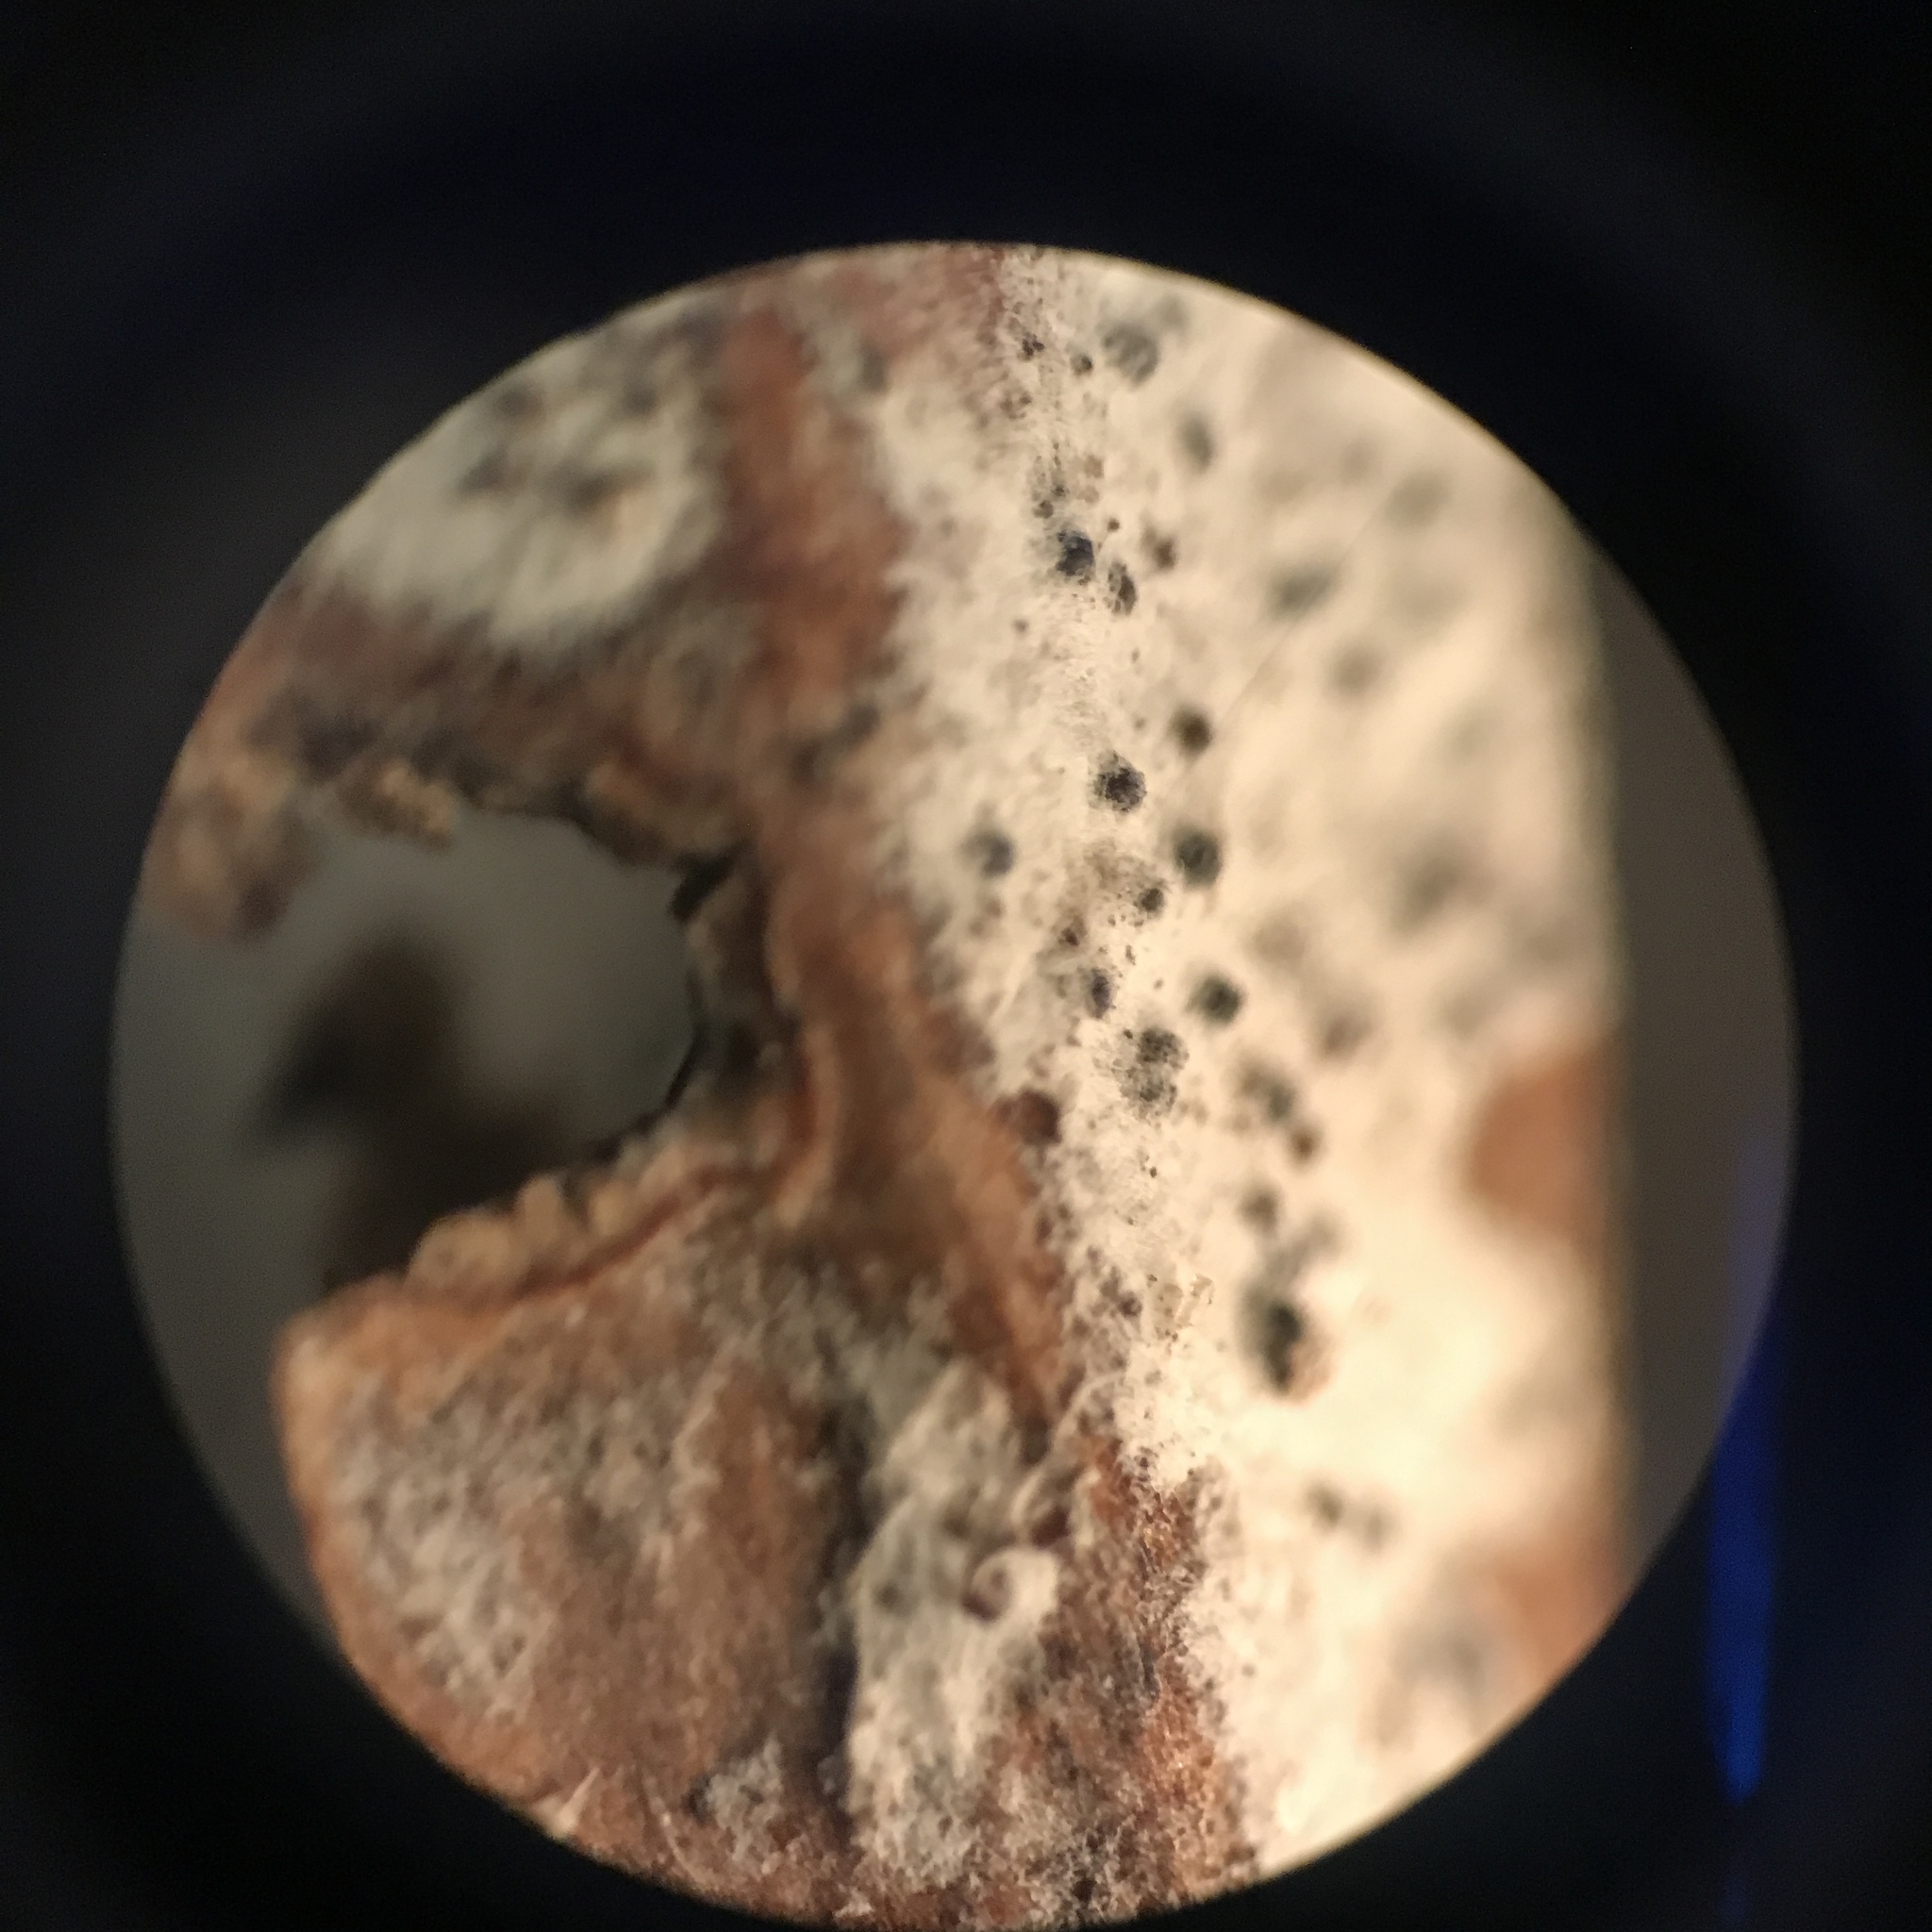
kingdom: Fungi
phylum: Ascomycota
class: Leotiomycetes
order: Helotiales
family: Erysiphaceae
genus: Erysiphe
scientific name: Erysiphe liriodendri
